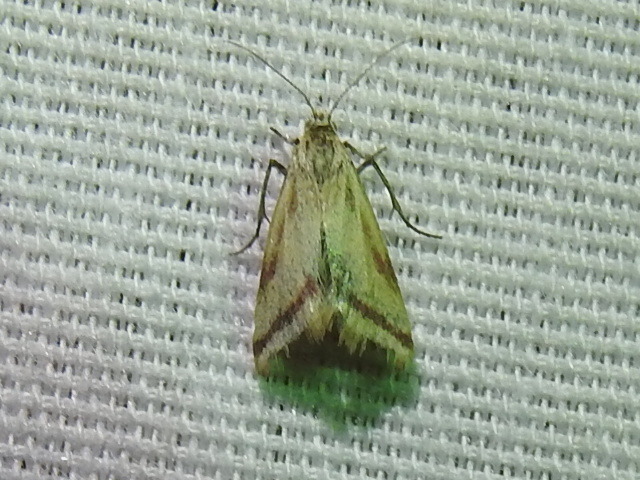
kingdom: Animalia
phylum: Arthropoda
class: Insecta
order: Lepidoptera
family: Crambidae
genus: Microtheoris
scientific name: Microtheoris vibicalis
